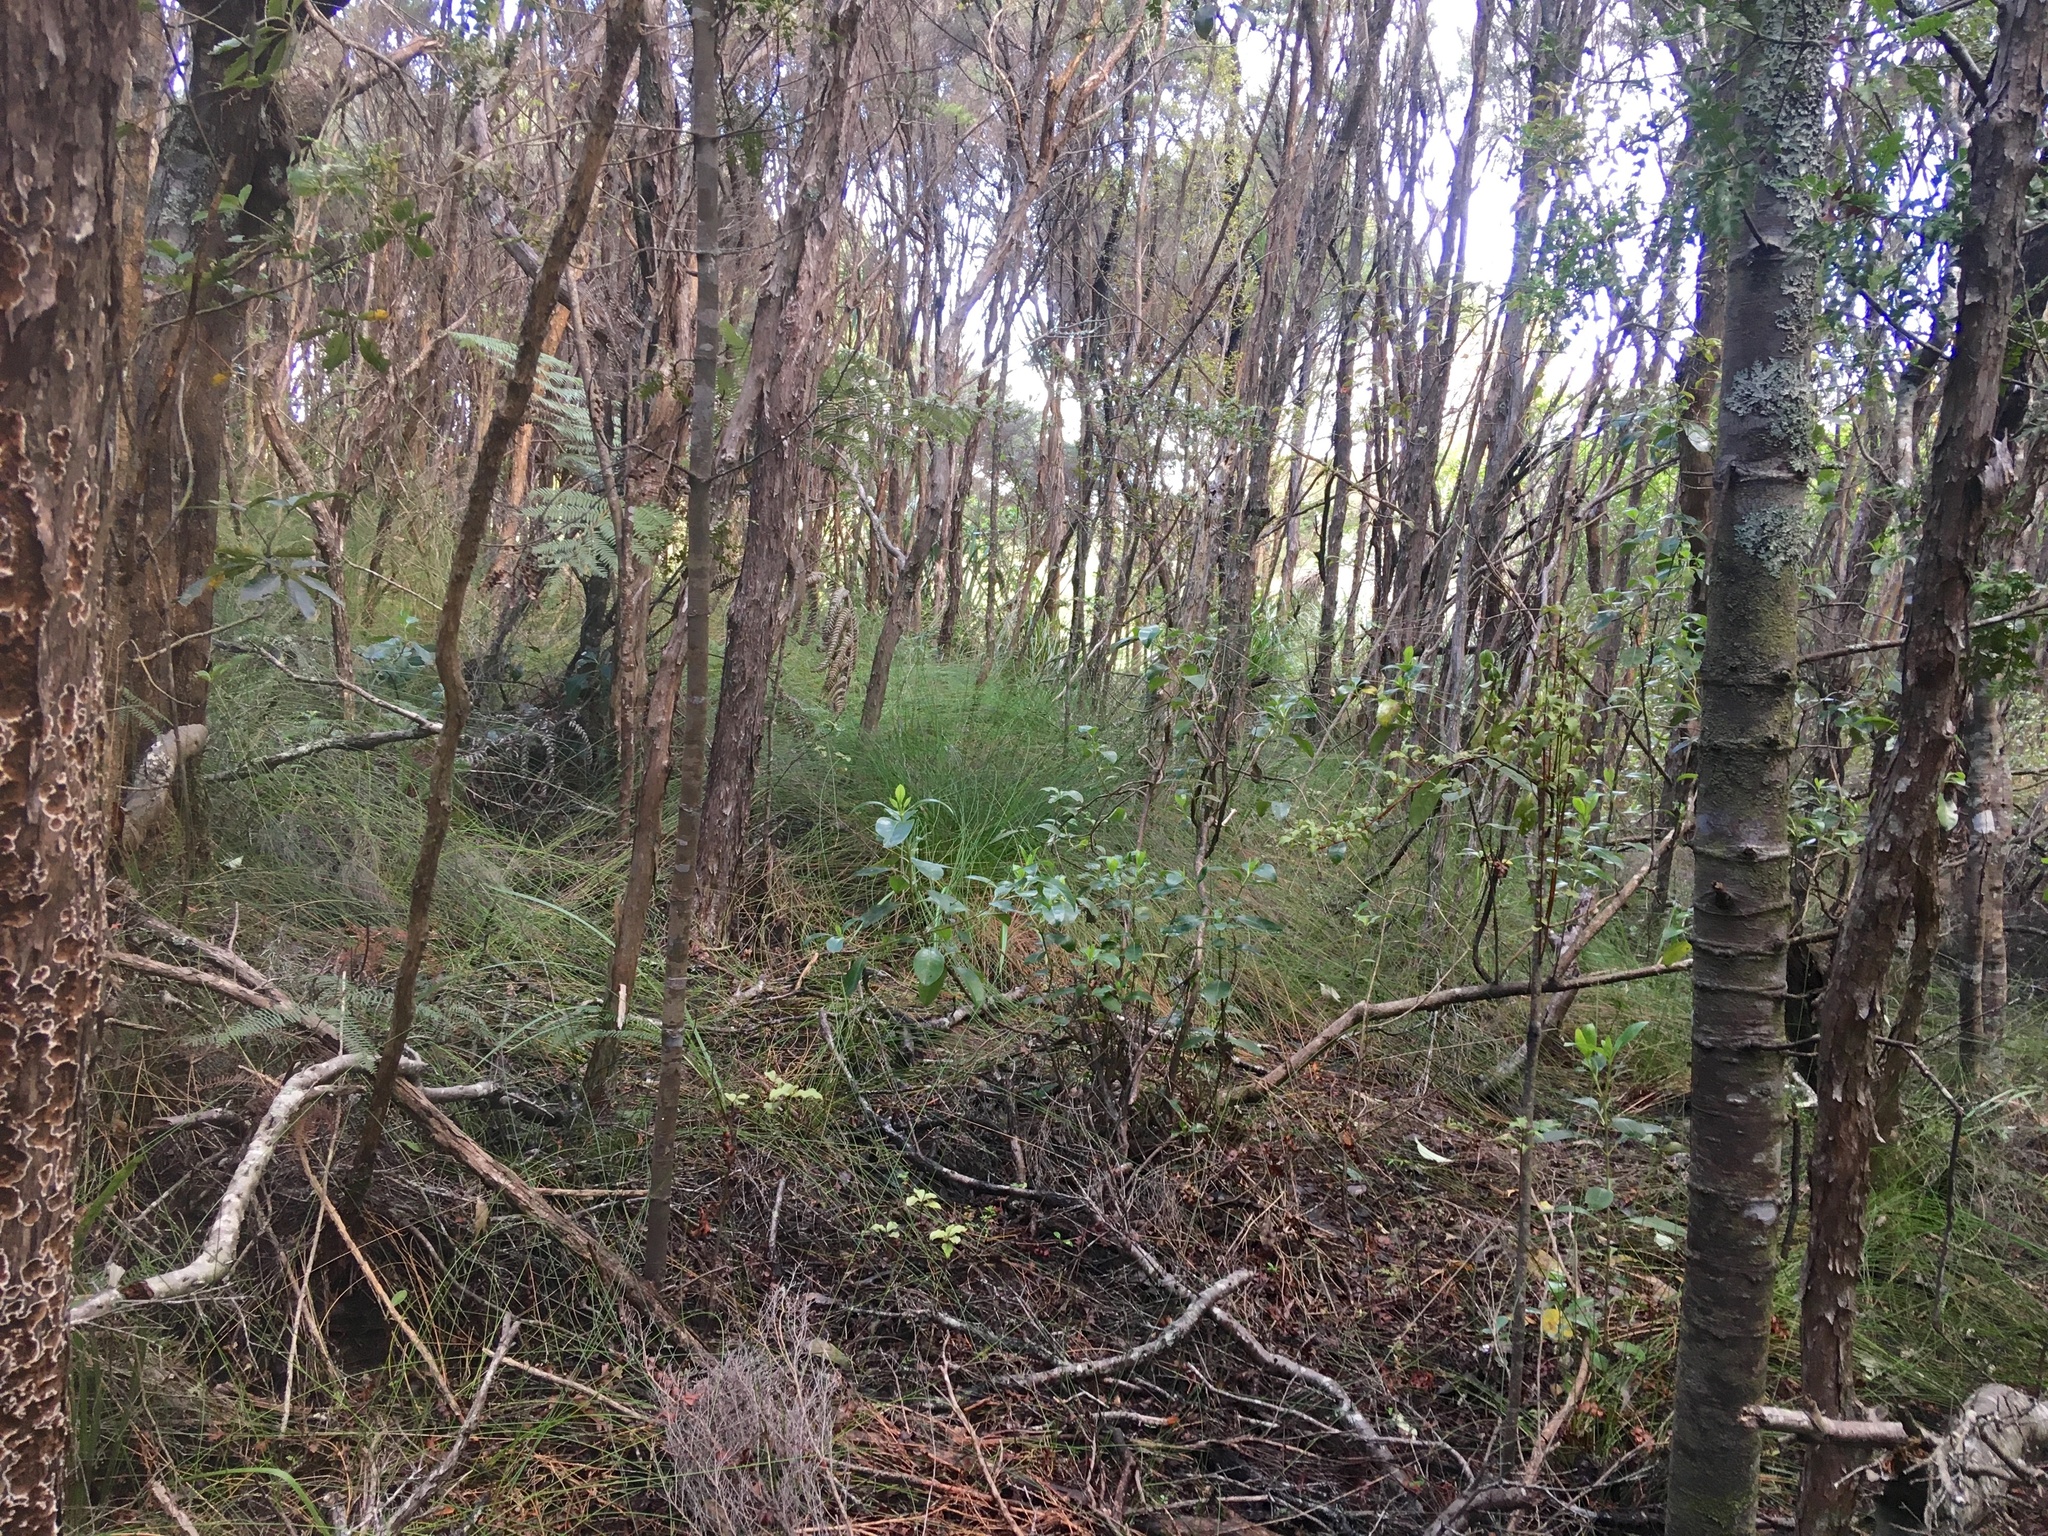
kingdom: Plantae
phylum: Tracheophyta
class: Magnoliopsida
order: Gentianales
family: Rubiaceae
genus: Coprosma
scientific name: Coprosma lucida
